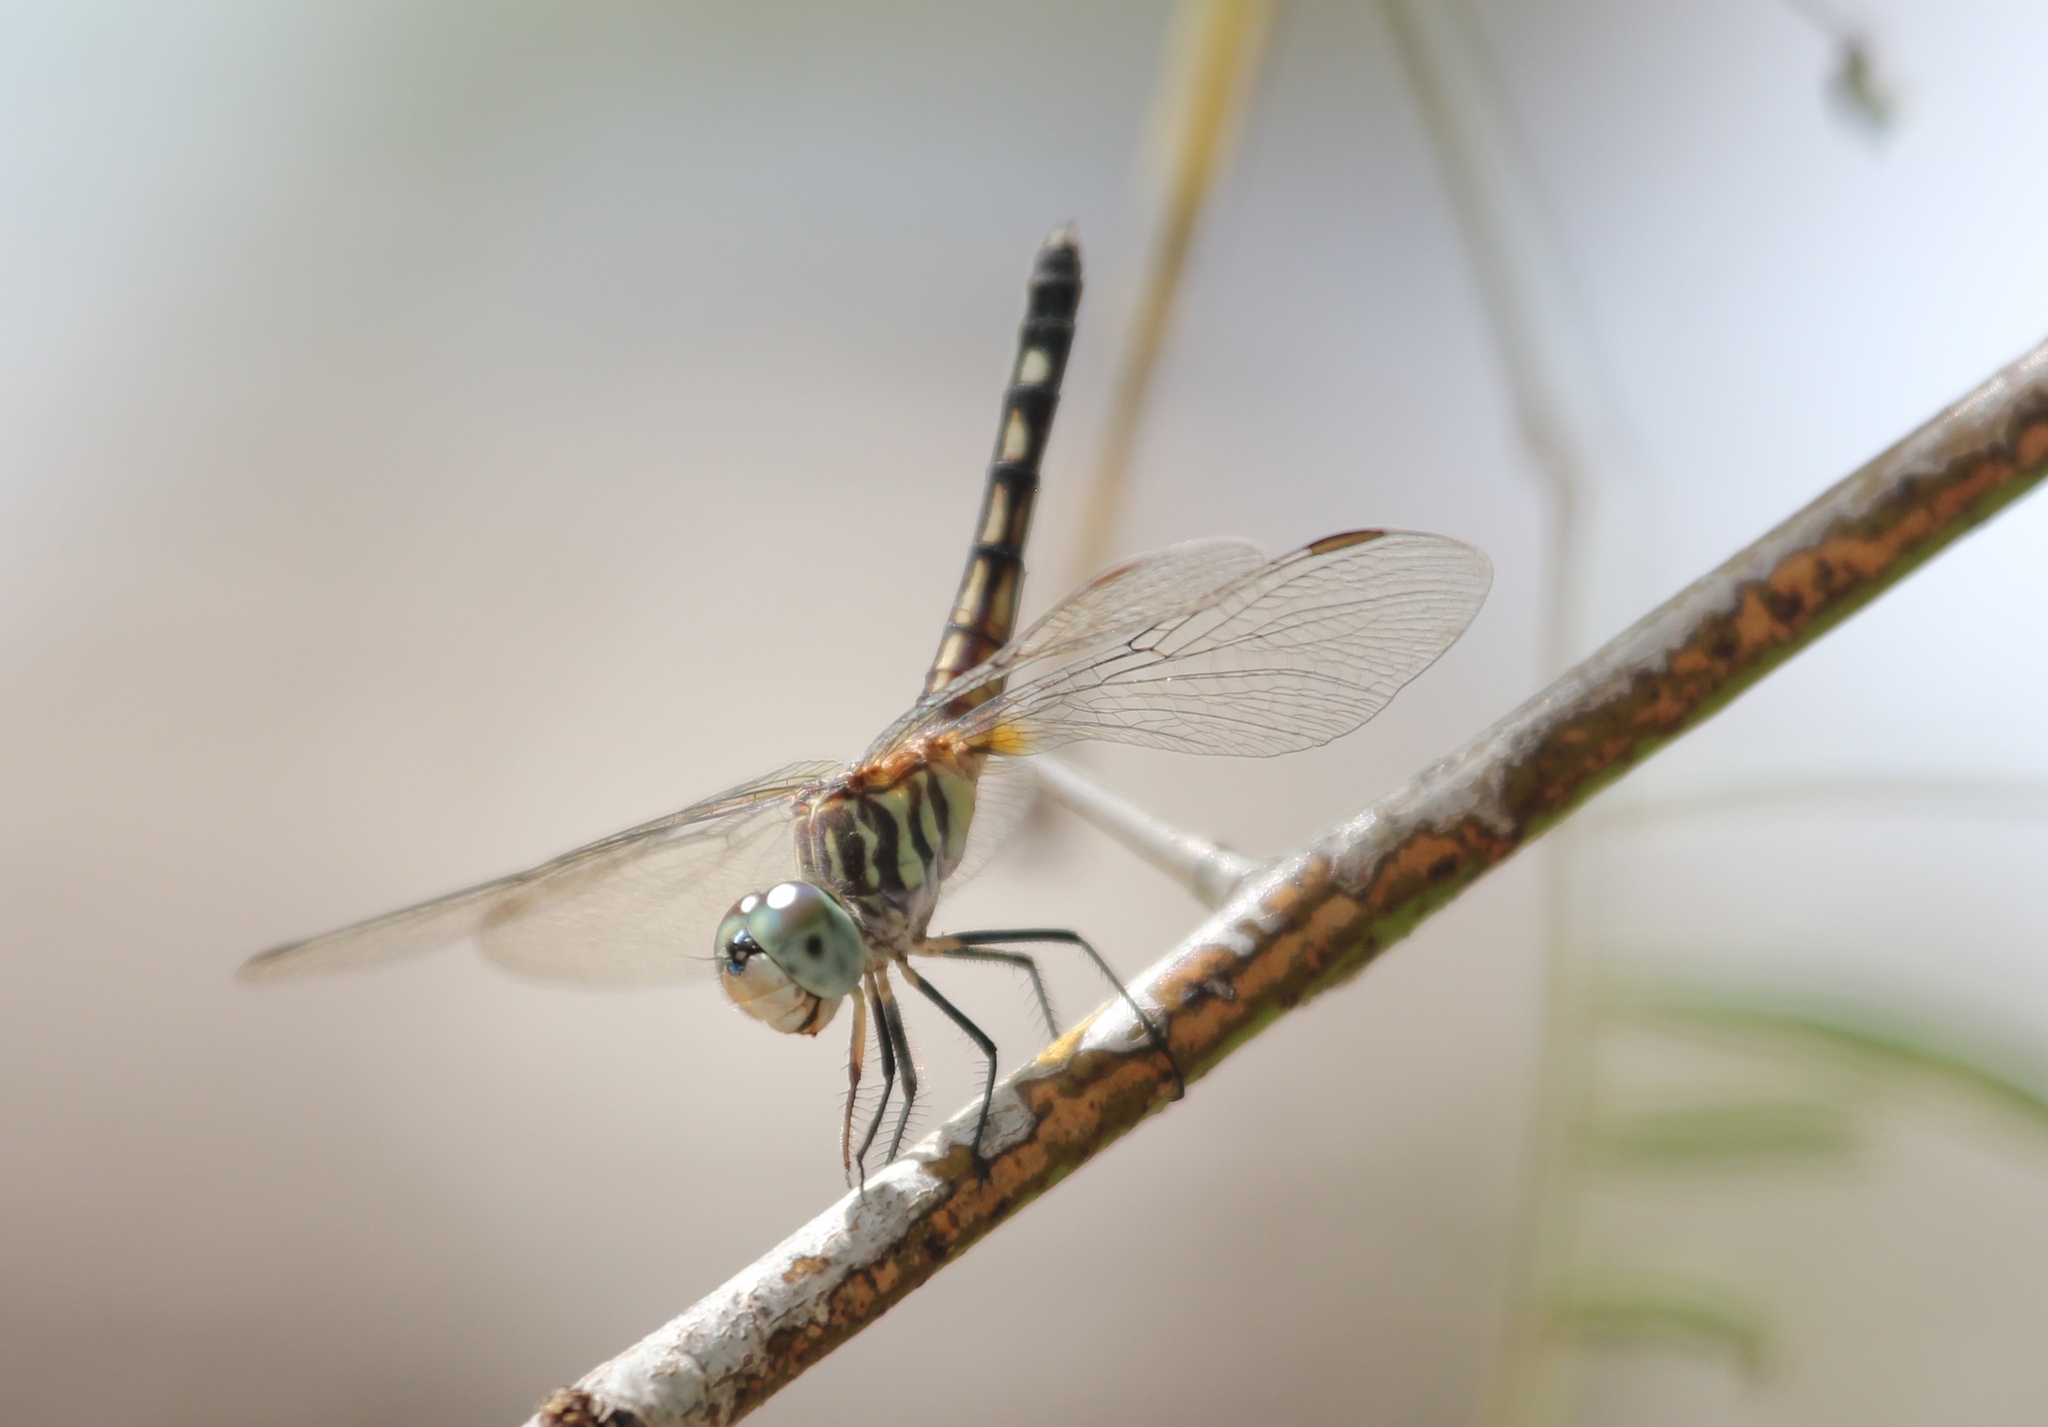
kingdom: Animalia
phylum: Arthropoda
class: Insecta
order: Odonata
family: Libellulidae
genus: Pachydiplax
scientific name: Pachydiplax longipennis
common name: Blue dasher
